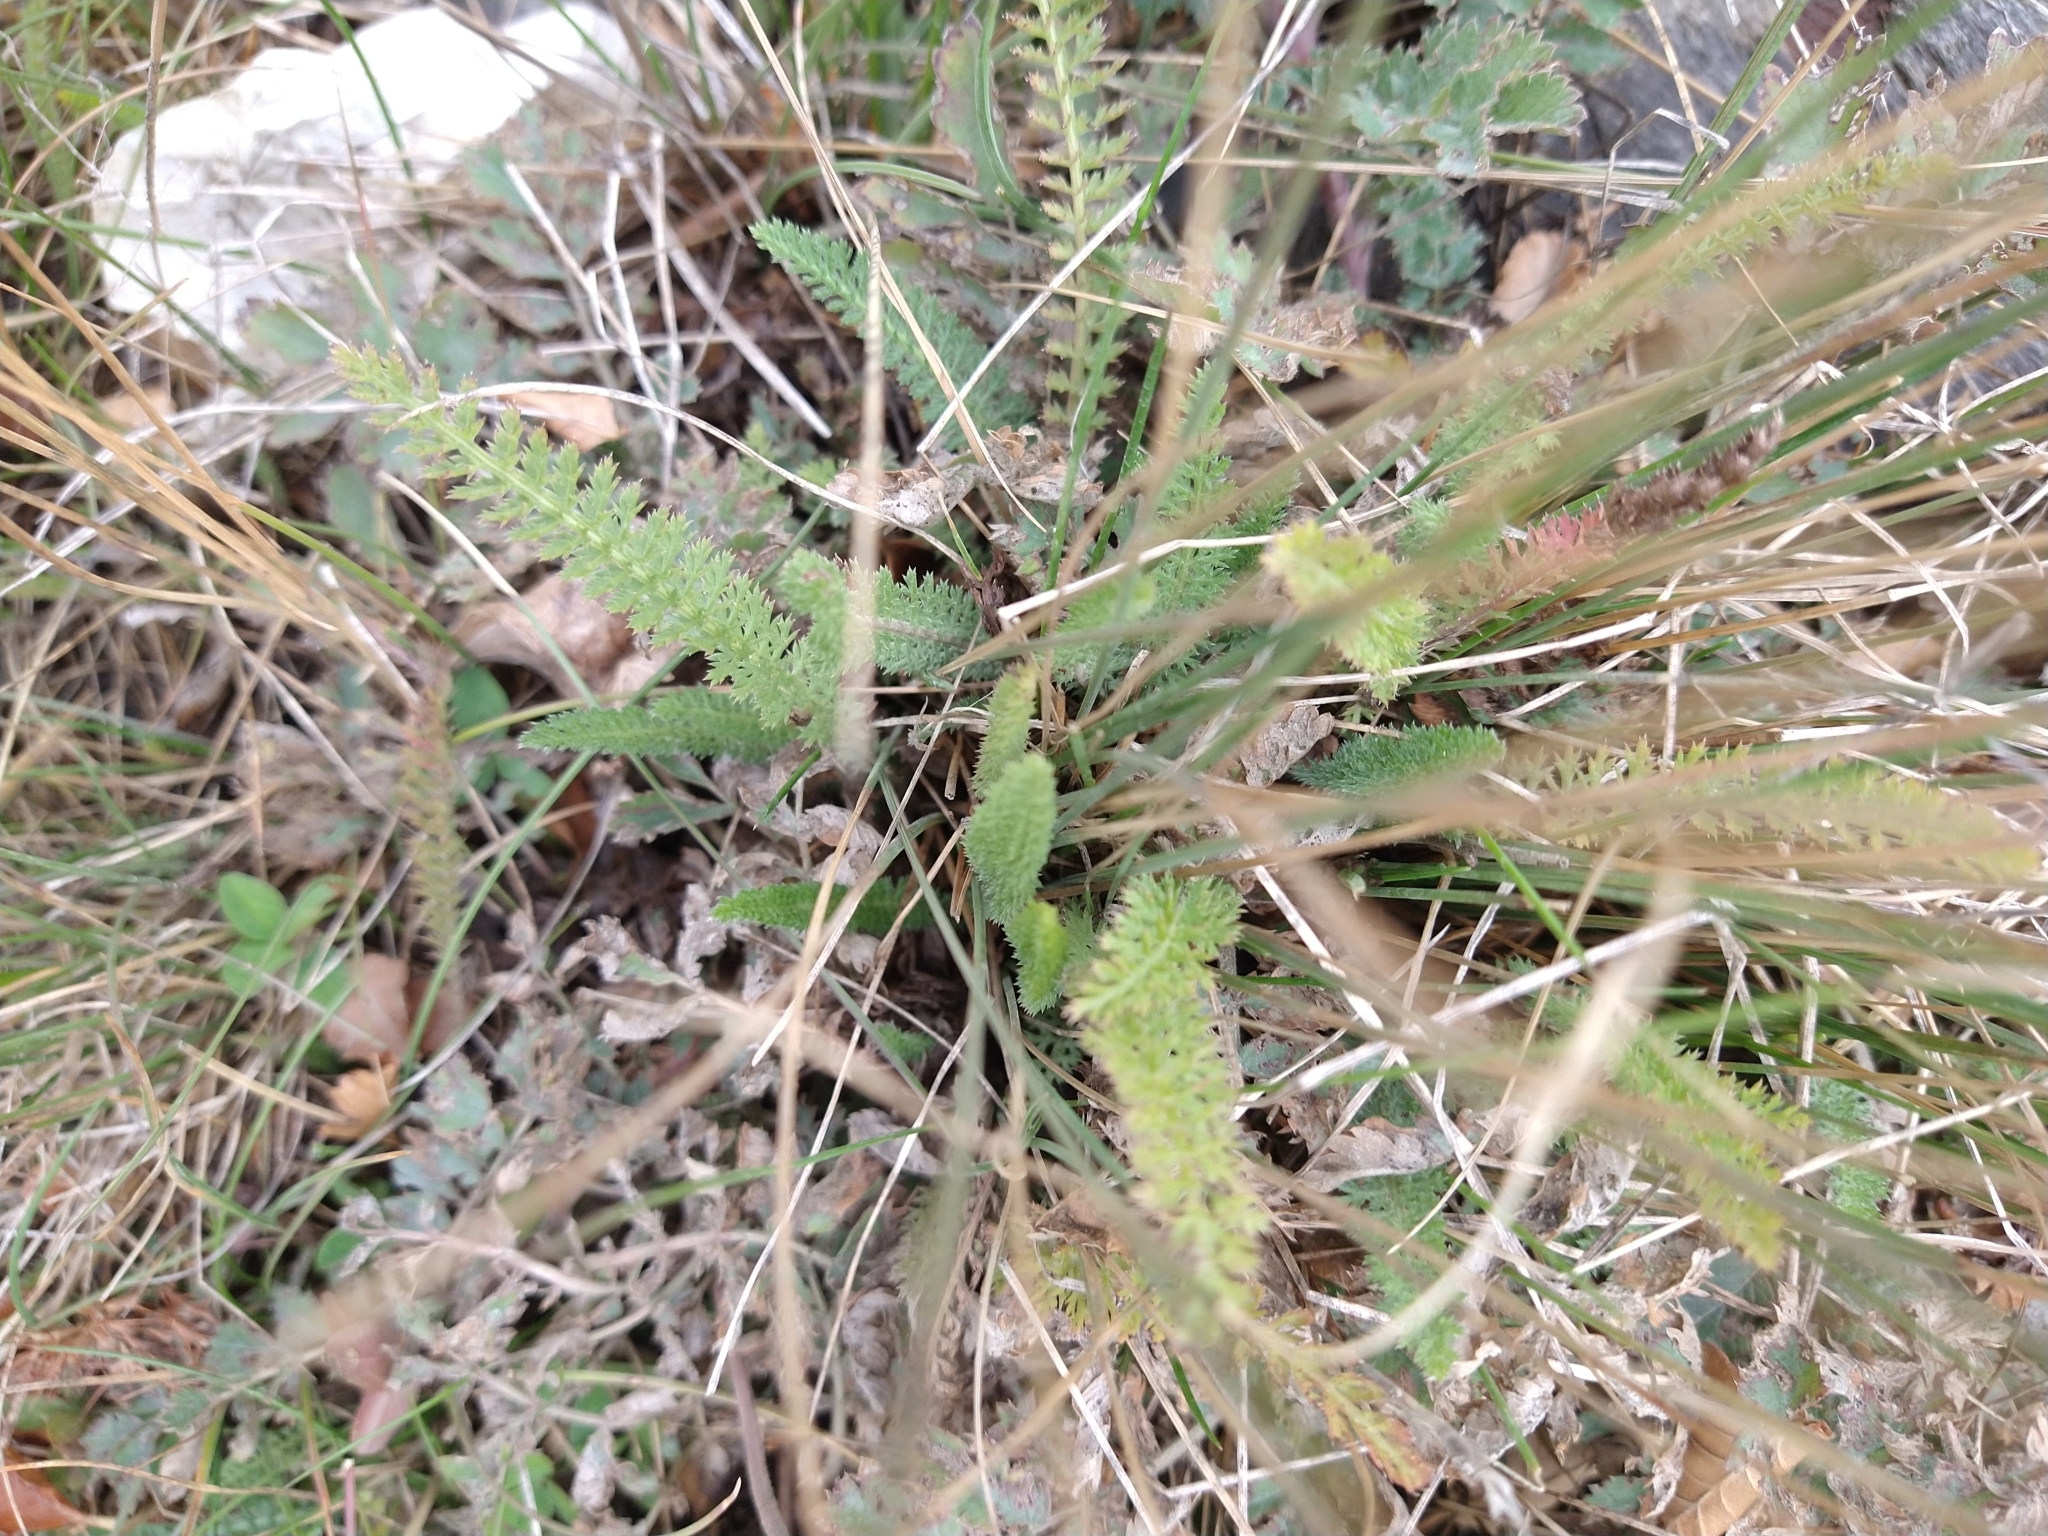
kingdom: Plantae
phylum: Tracheophyta
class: Magnoliopsida
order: Asterales
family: Asteraceae
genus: Achillea
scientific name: Achillea millefolium
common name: Yarrow
